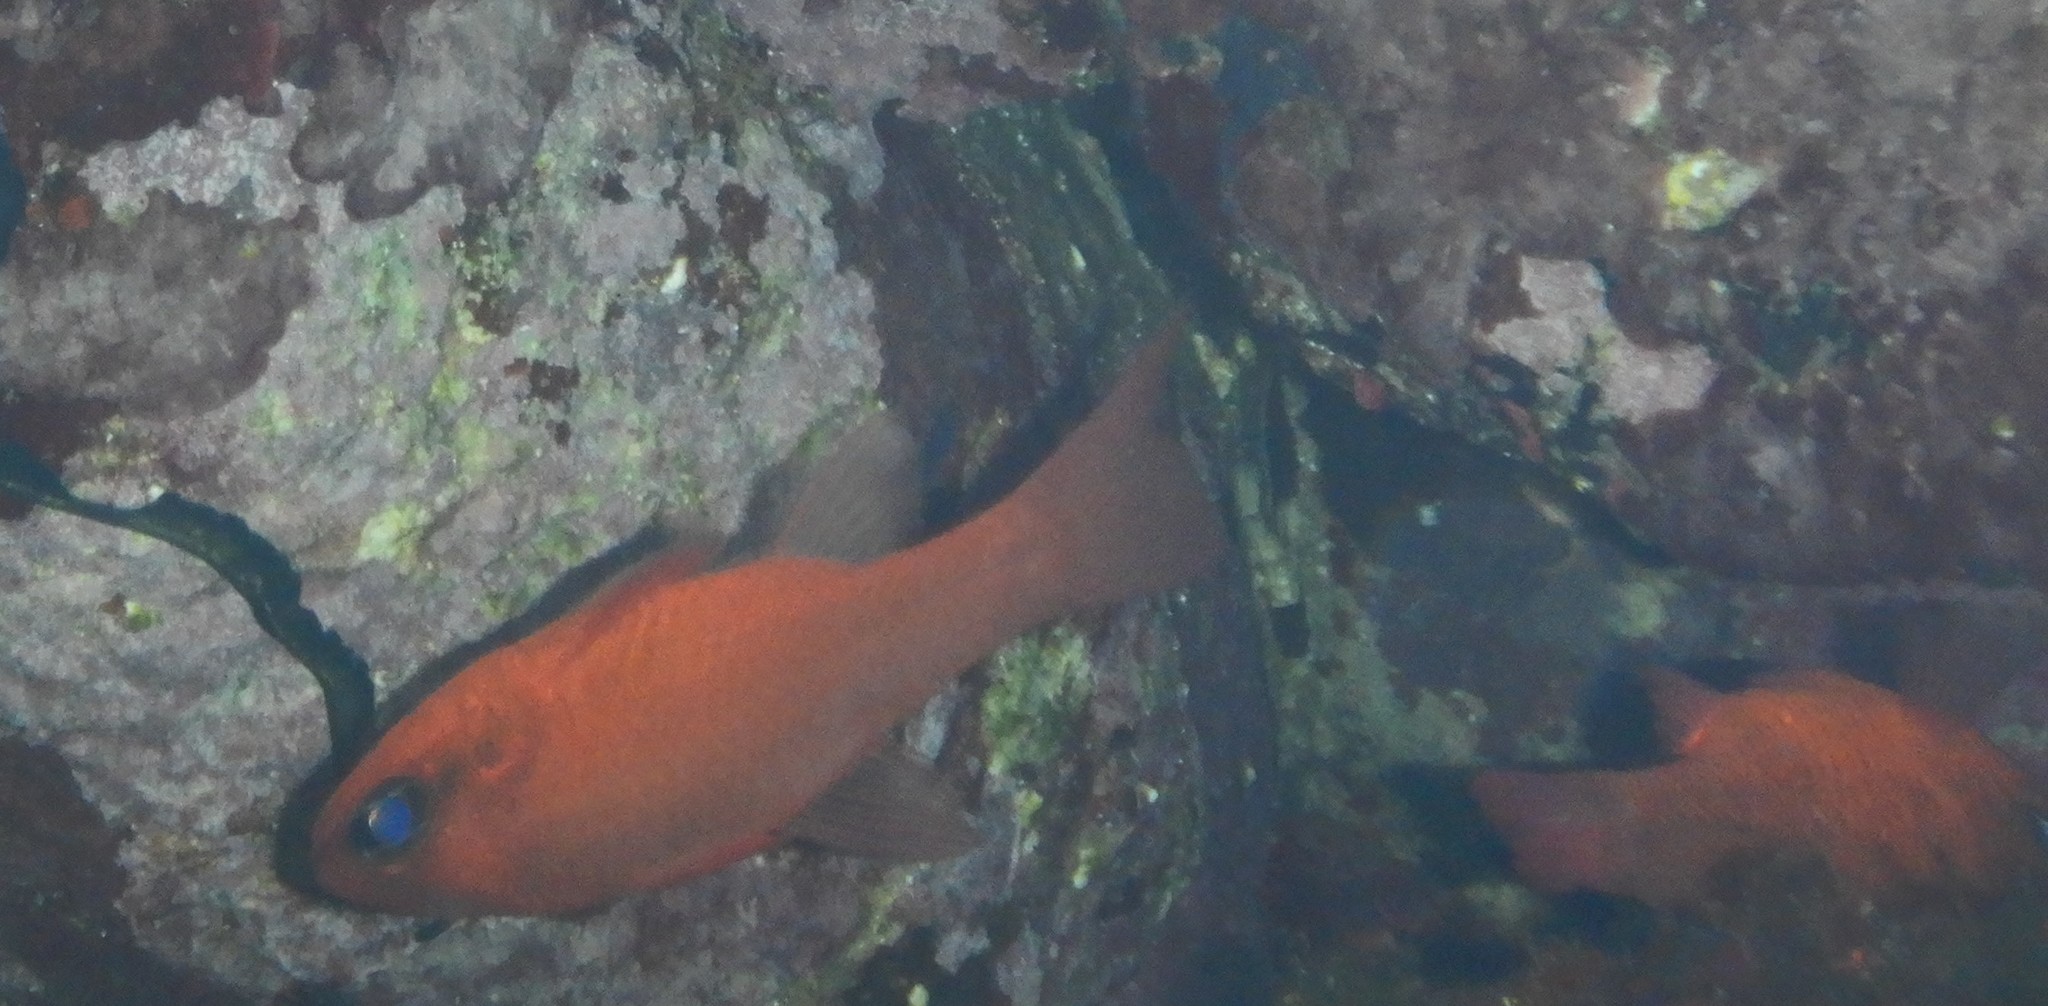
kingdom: Animalia
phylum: Chordata
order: Perciformes
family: Apogonidae
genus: Apogon
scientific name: Apogon imberbis
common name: Cardinal fish
